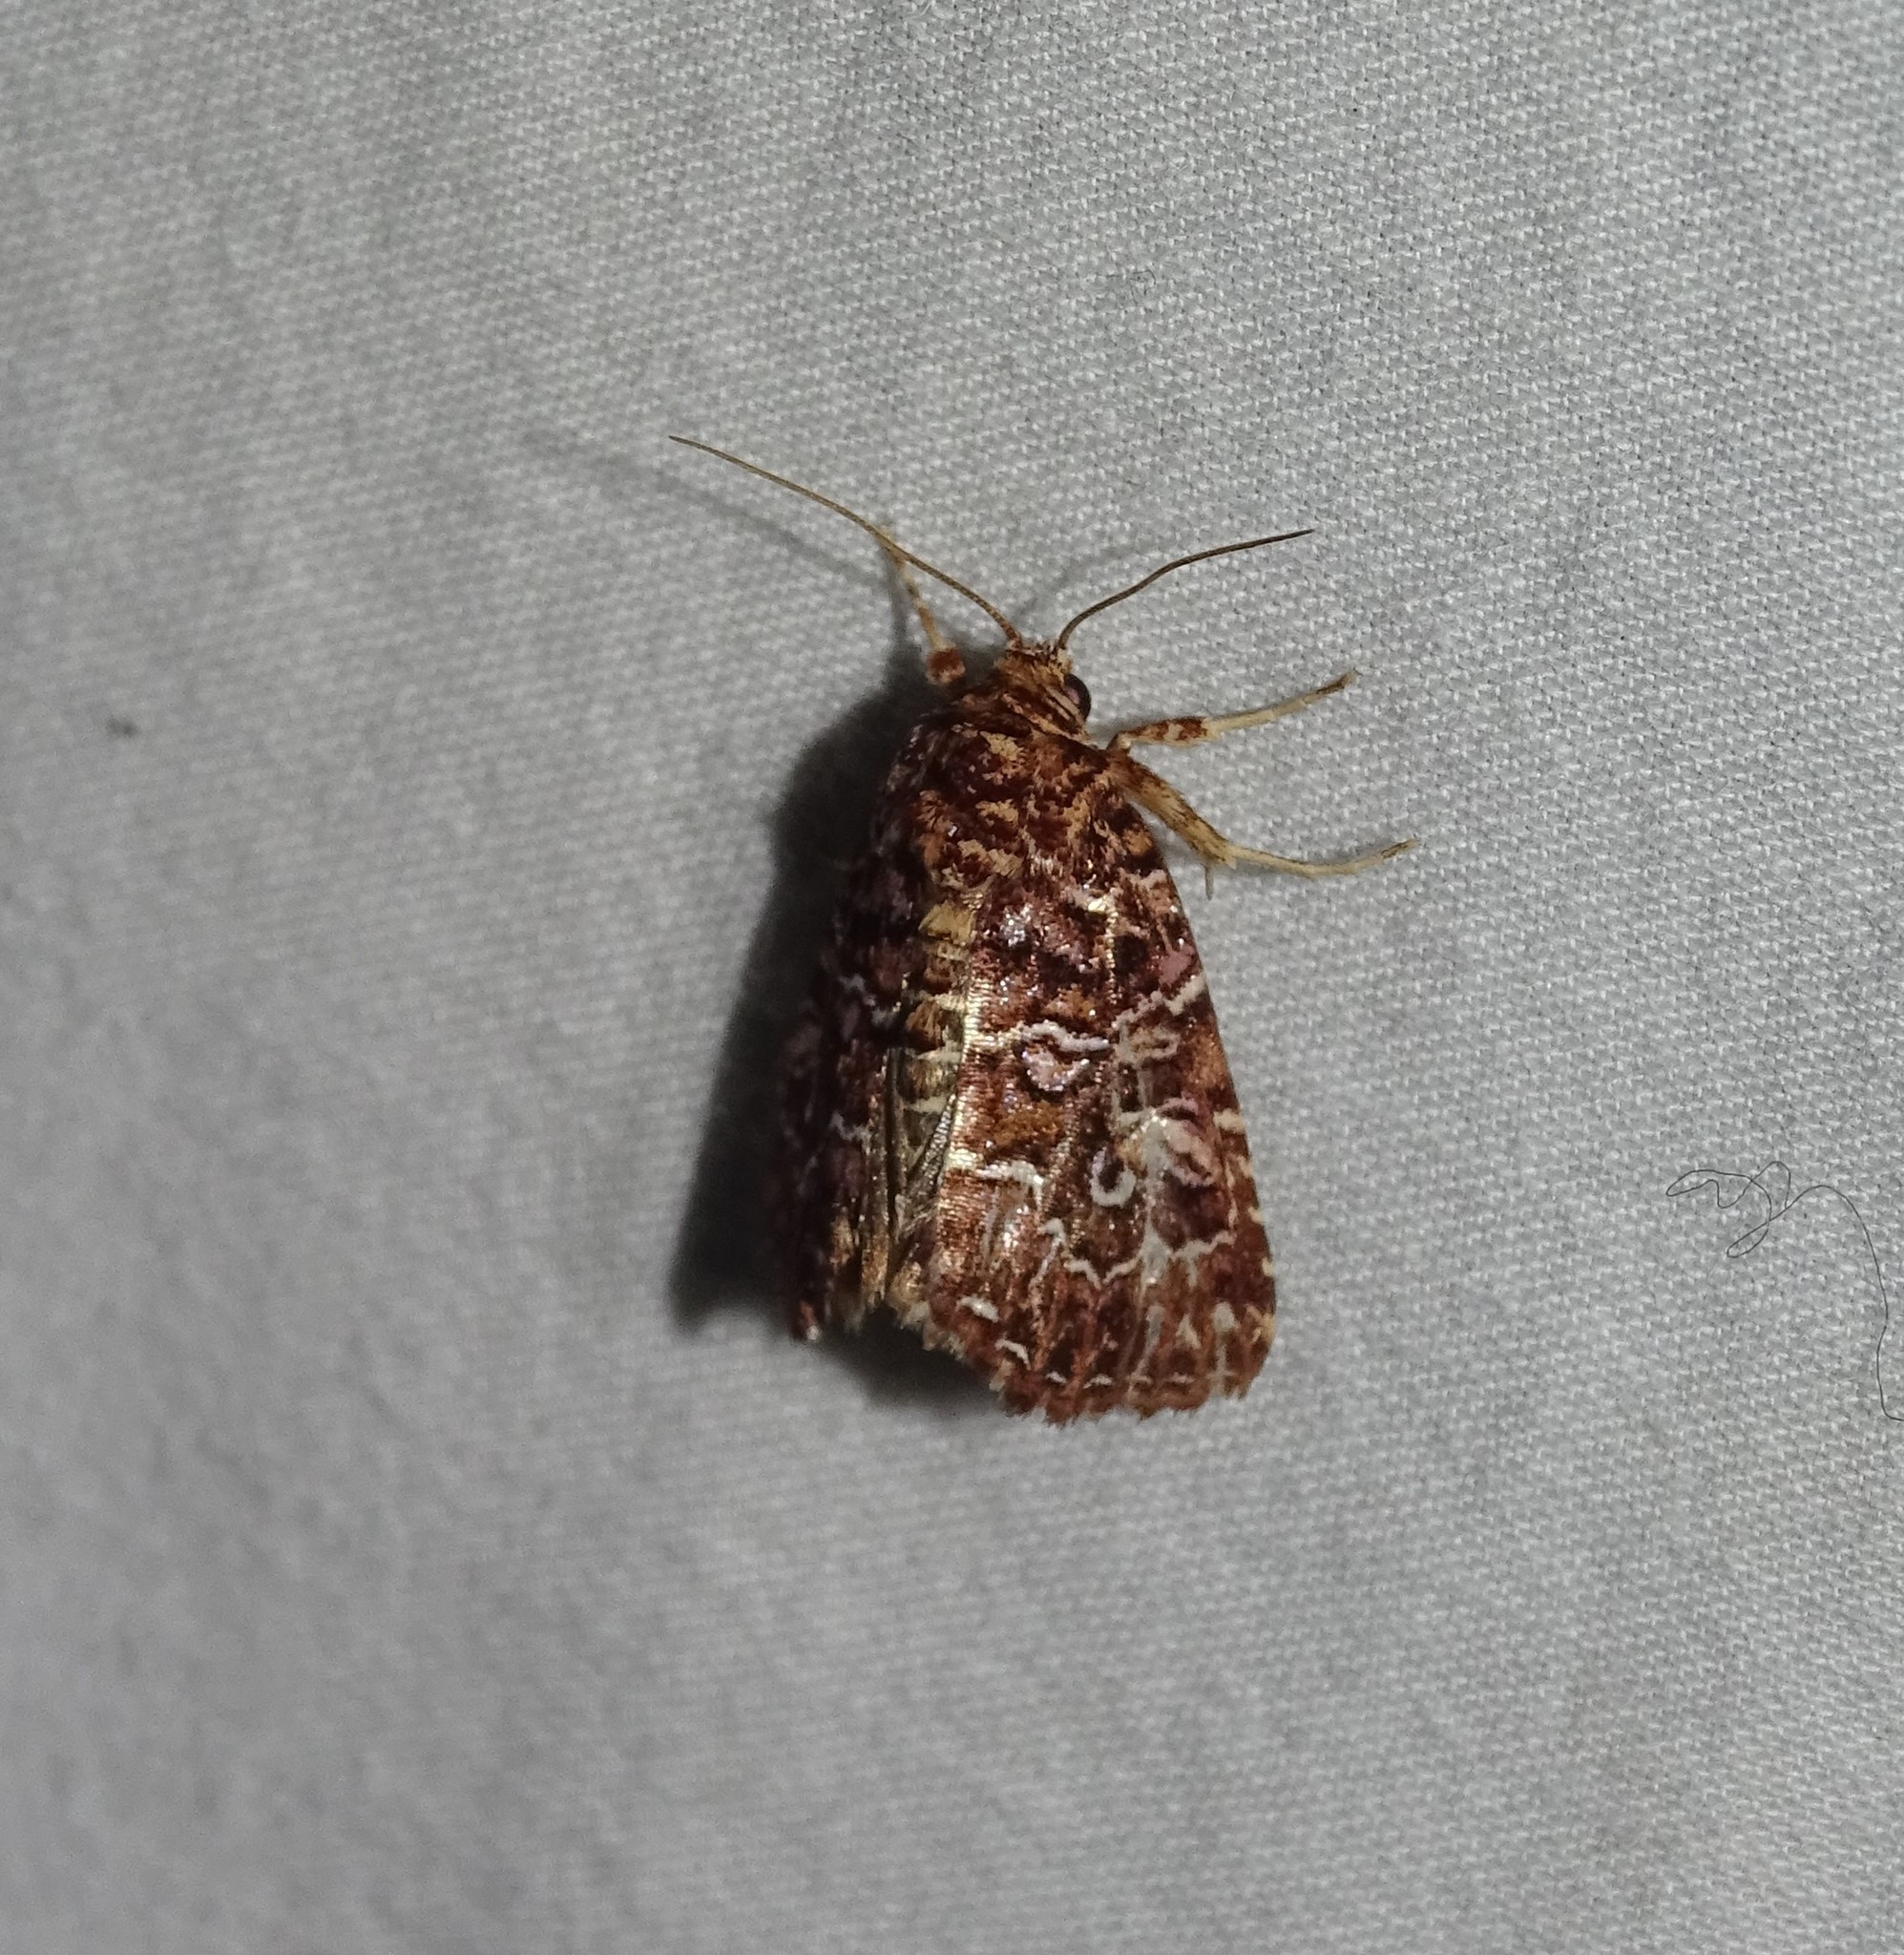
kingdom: Animalia
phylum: Arthropoda
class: Insecta
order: Lepidoptera
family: Noctuidae
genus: Callopistria
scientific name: Callopistria granitosa
